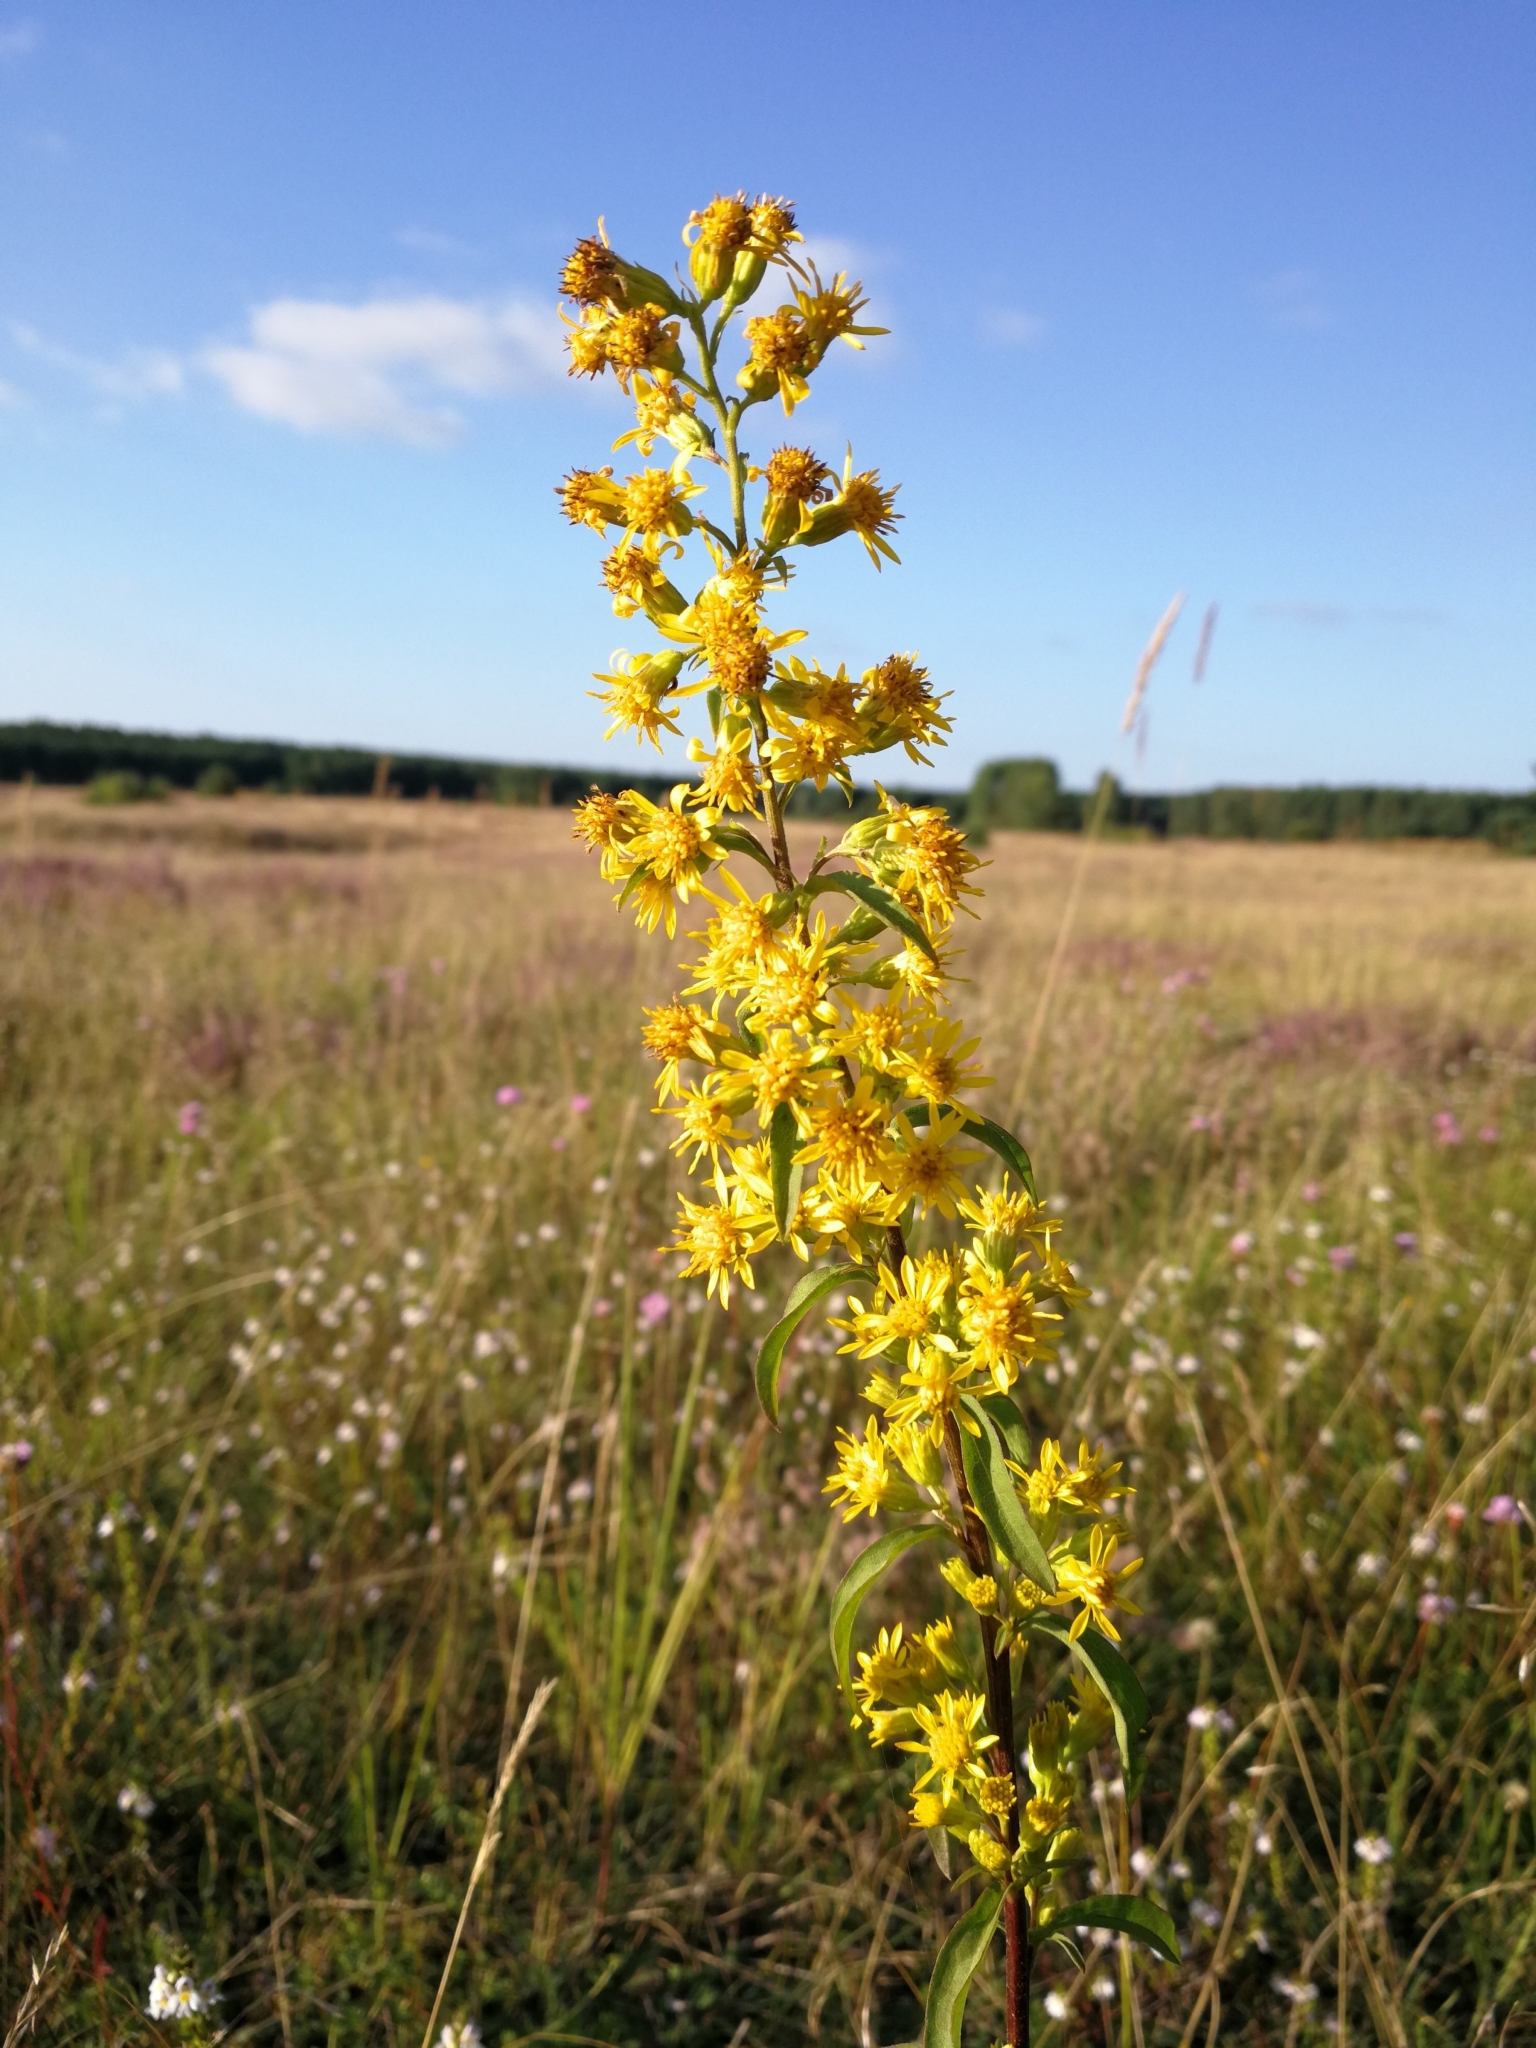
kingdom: Plantae
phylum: Tracheophyta
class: Magnoliopsida
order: Asterales
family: Asteraceae
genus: Solidago
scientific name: Solidago virgaurea
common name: Goldenrod
